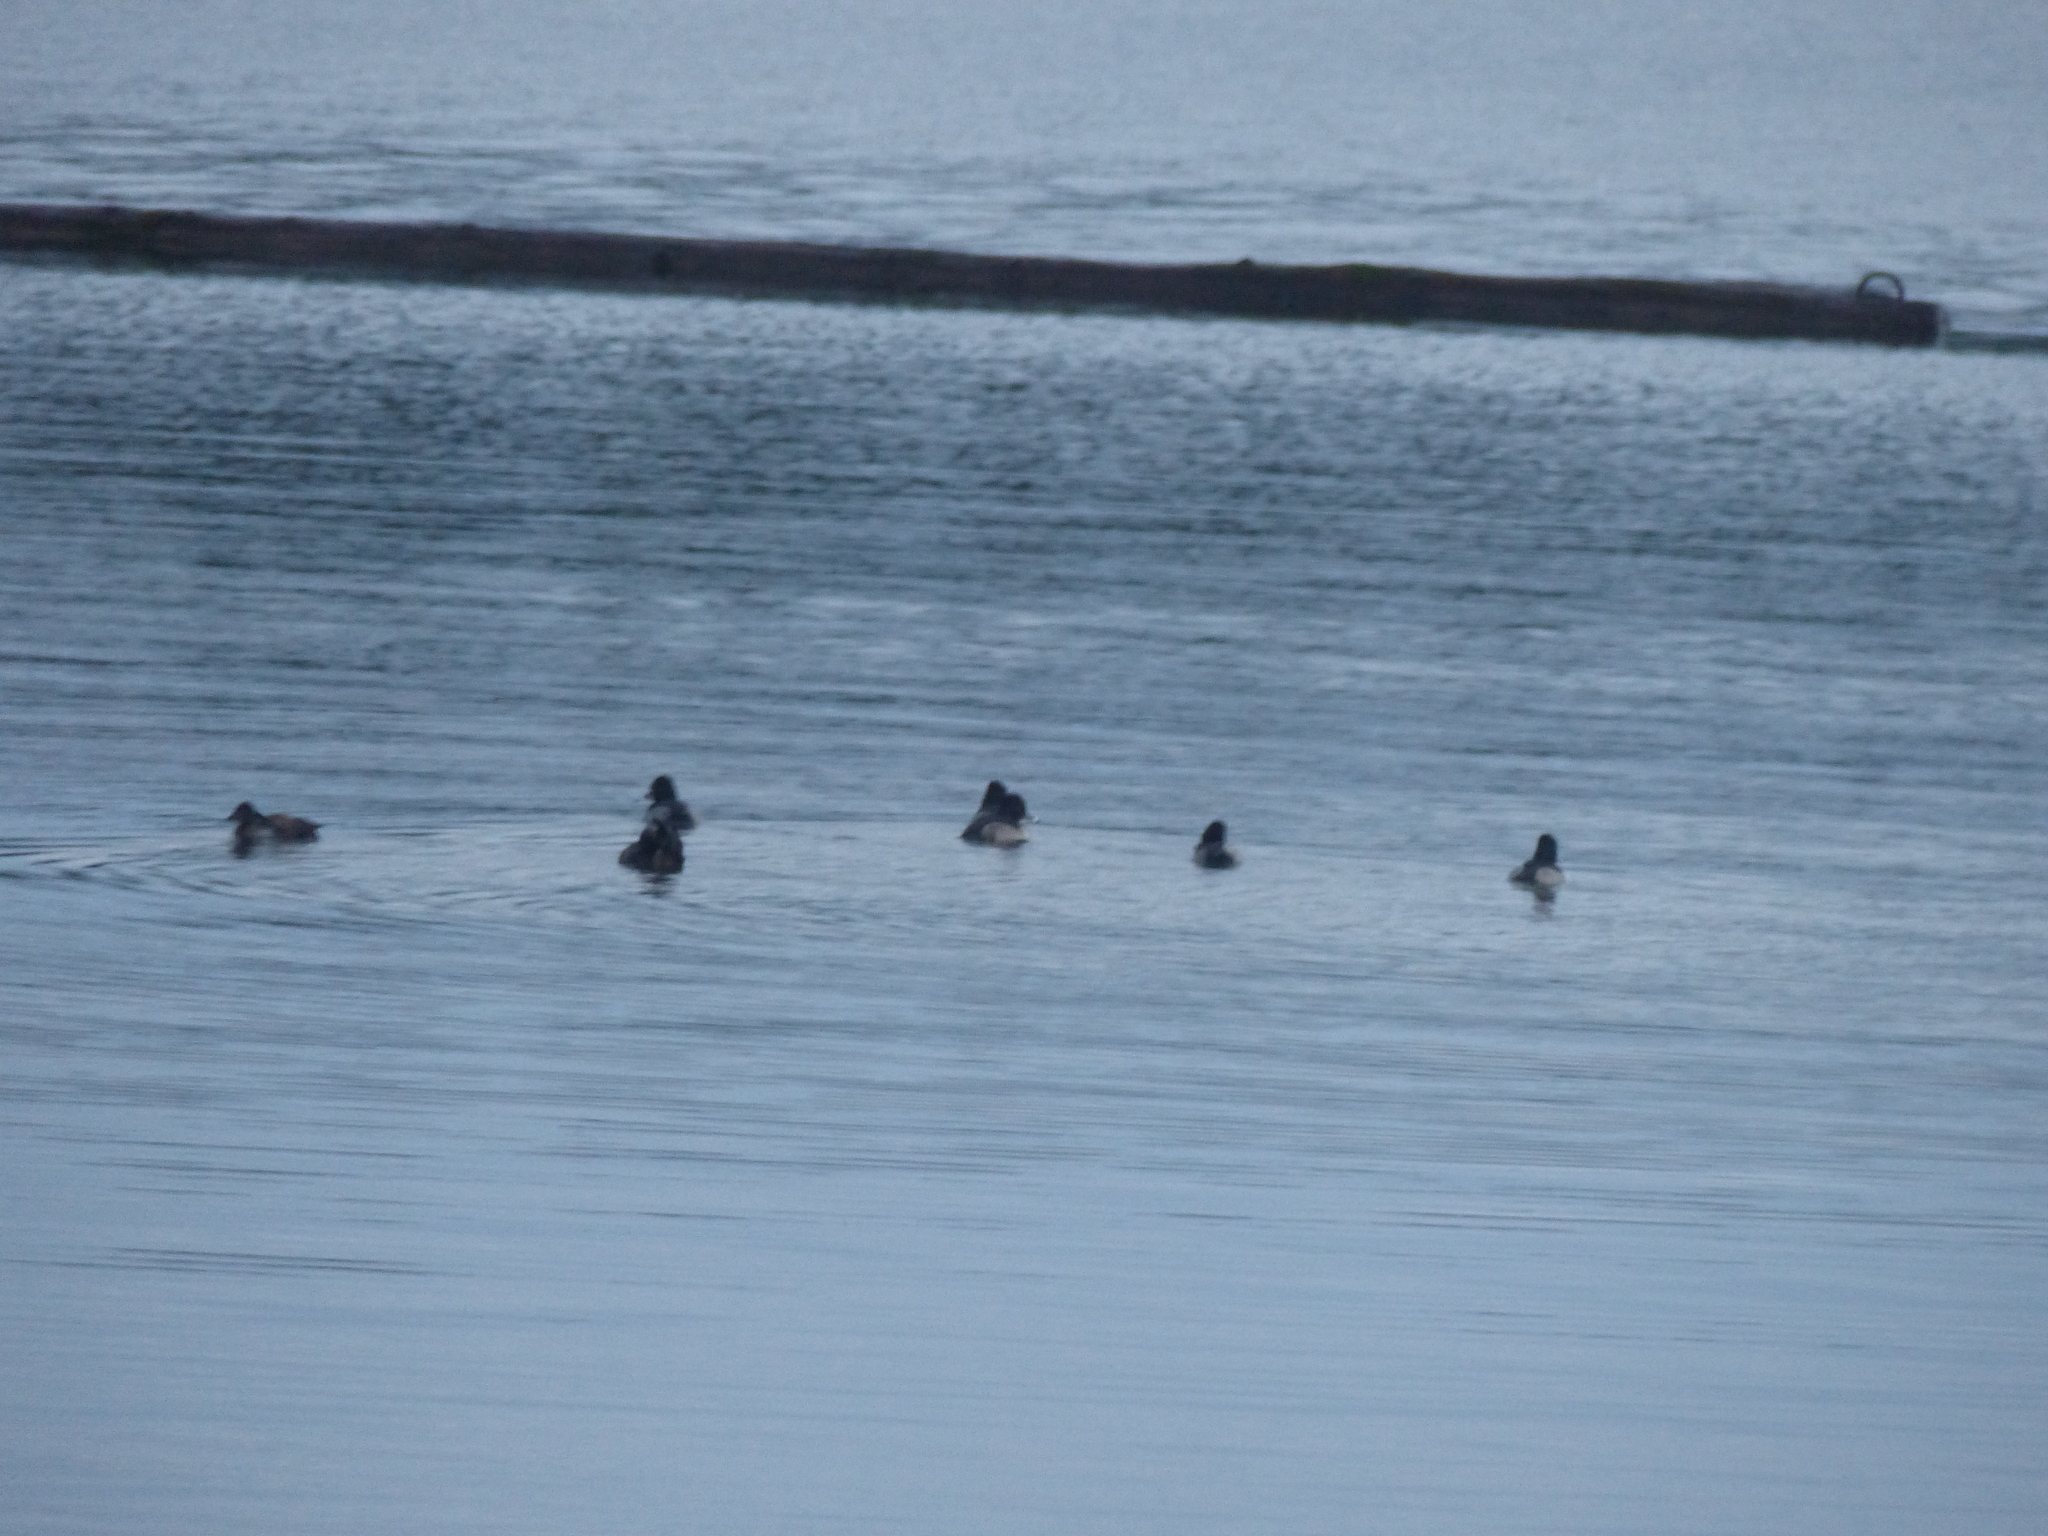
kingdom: Animalia
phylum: Chordata
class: Aves
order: Anseriformes
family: Anatidae
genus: Aythya
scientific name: Aythya collaris
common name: Ring-necked duck
